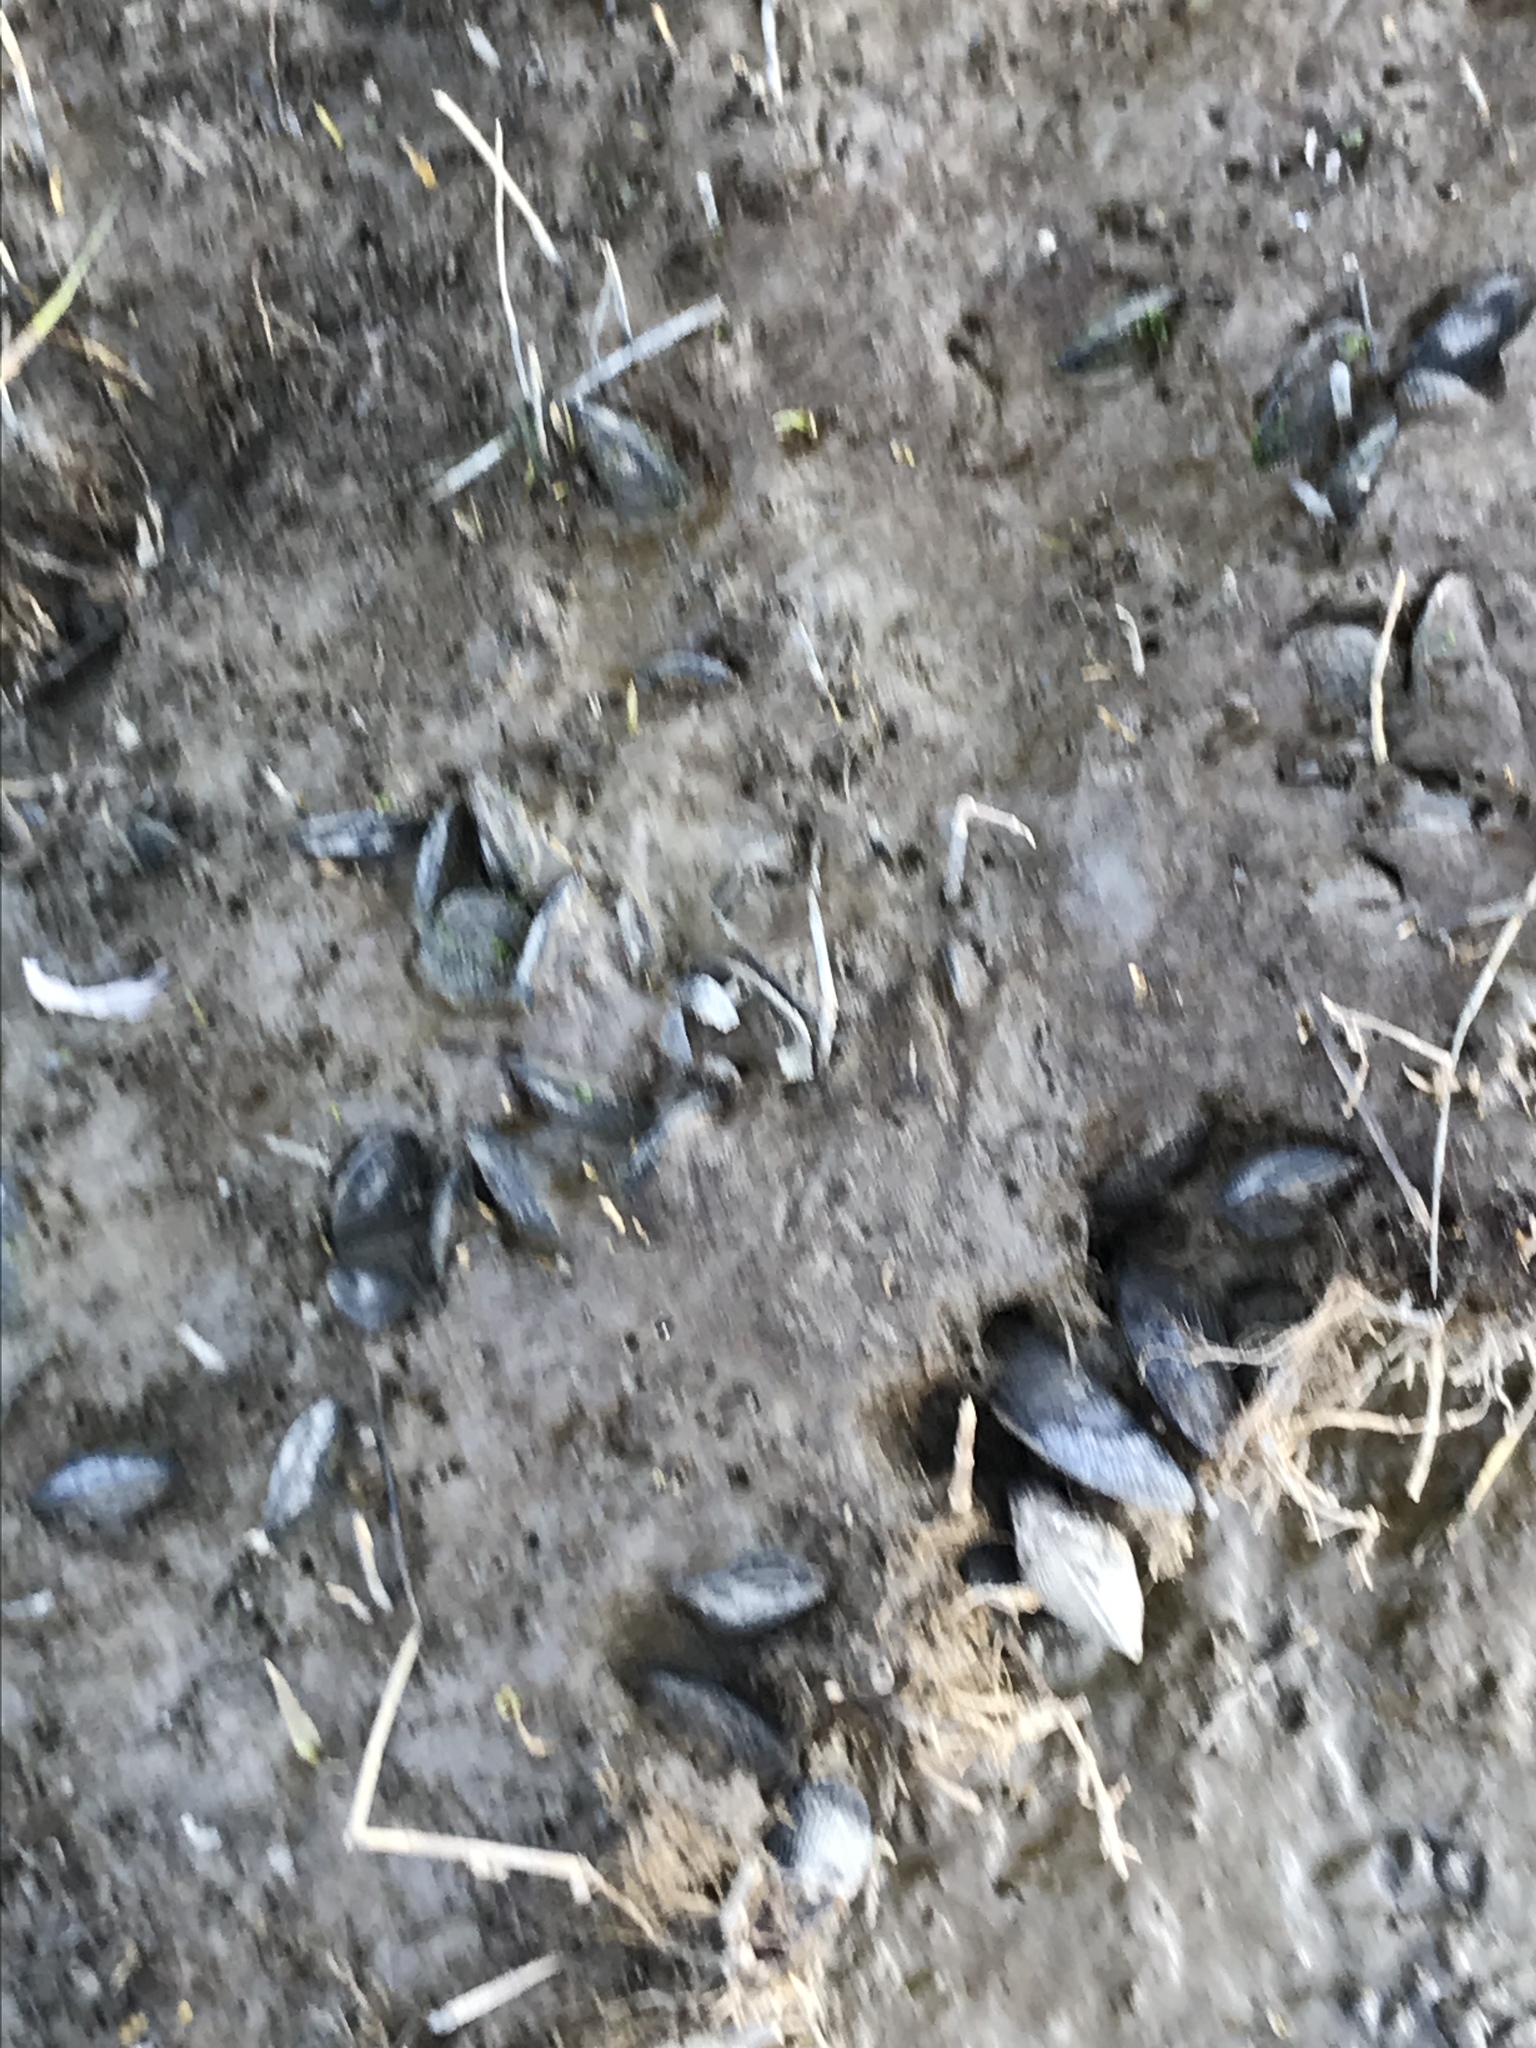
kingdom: Animalia
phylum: Mollusca
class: Bivalvia
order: Mytilida
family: Mytilidae
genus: Geukensia
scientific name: Geukensia demissa
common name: Ribbed mussel
